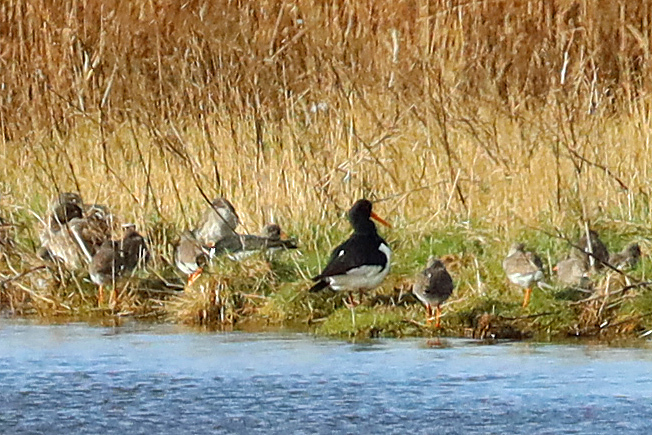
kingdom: Animalia
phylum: Chordata
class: Aves
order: Charadriiformes
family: Haematopodidae
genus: Haematopus
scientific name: Haematopus ostralegus
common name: Eurasian oystercatcher
